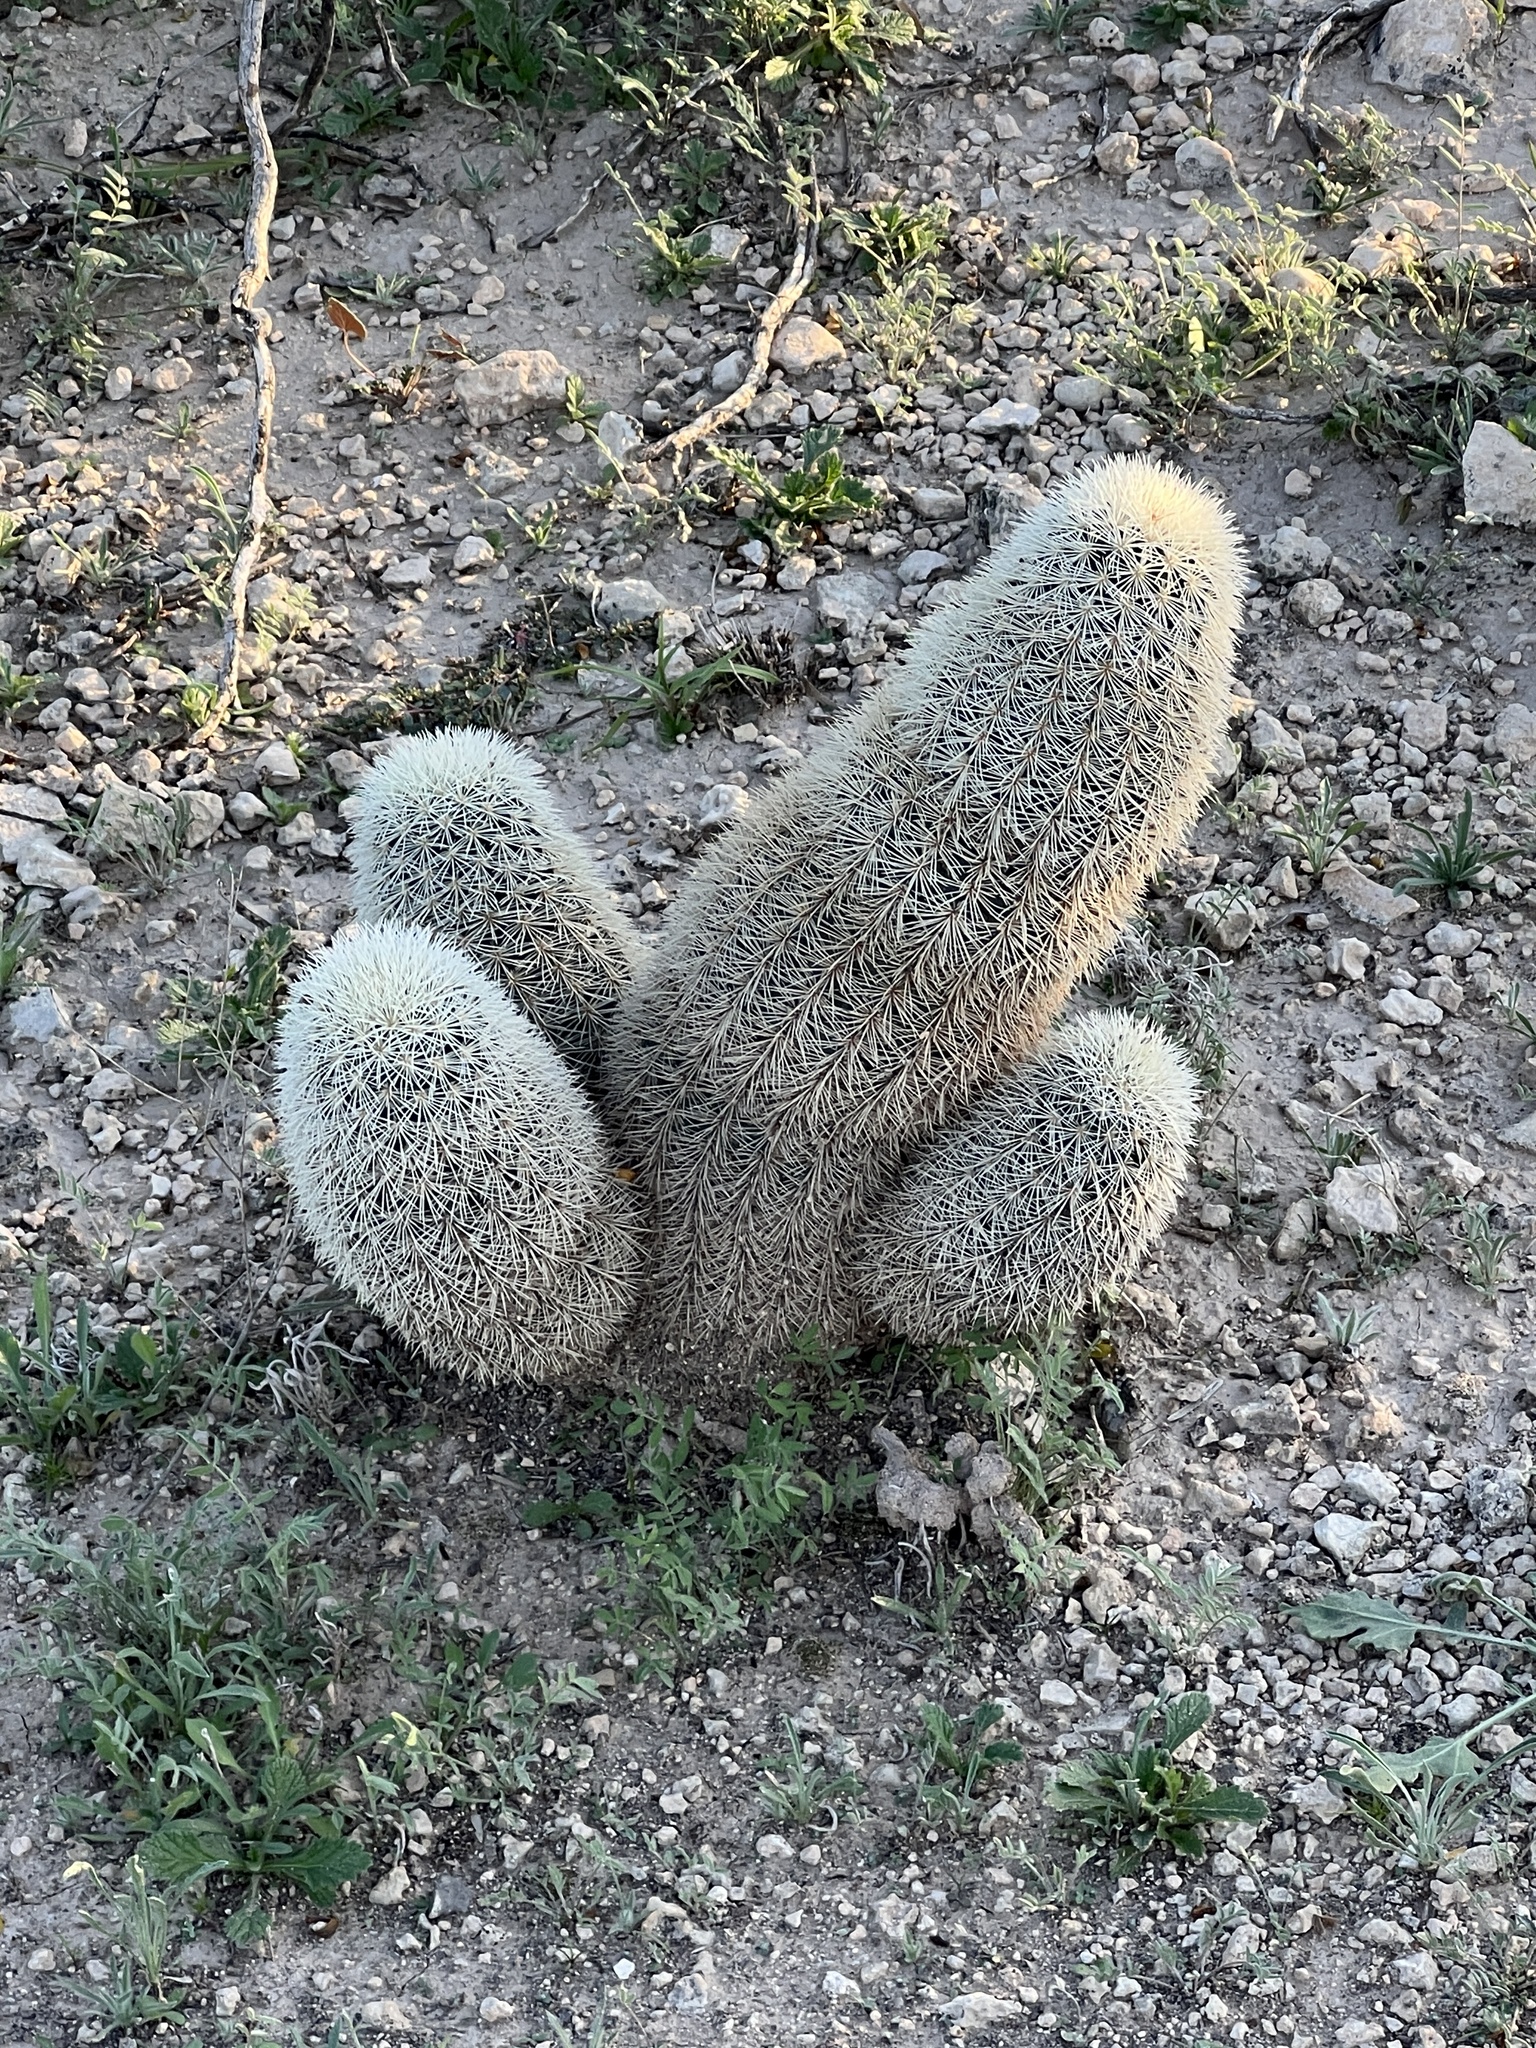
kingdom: Plantae
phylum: Tracheophyta
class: Magnoliopsida
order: Caryophyllales
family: Cactaceae
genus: Echinocereus
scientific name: Echinocereus dasyacanthus
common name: Spiny hedgehog cactus
